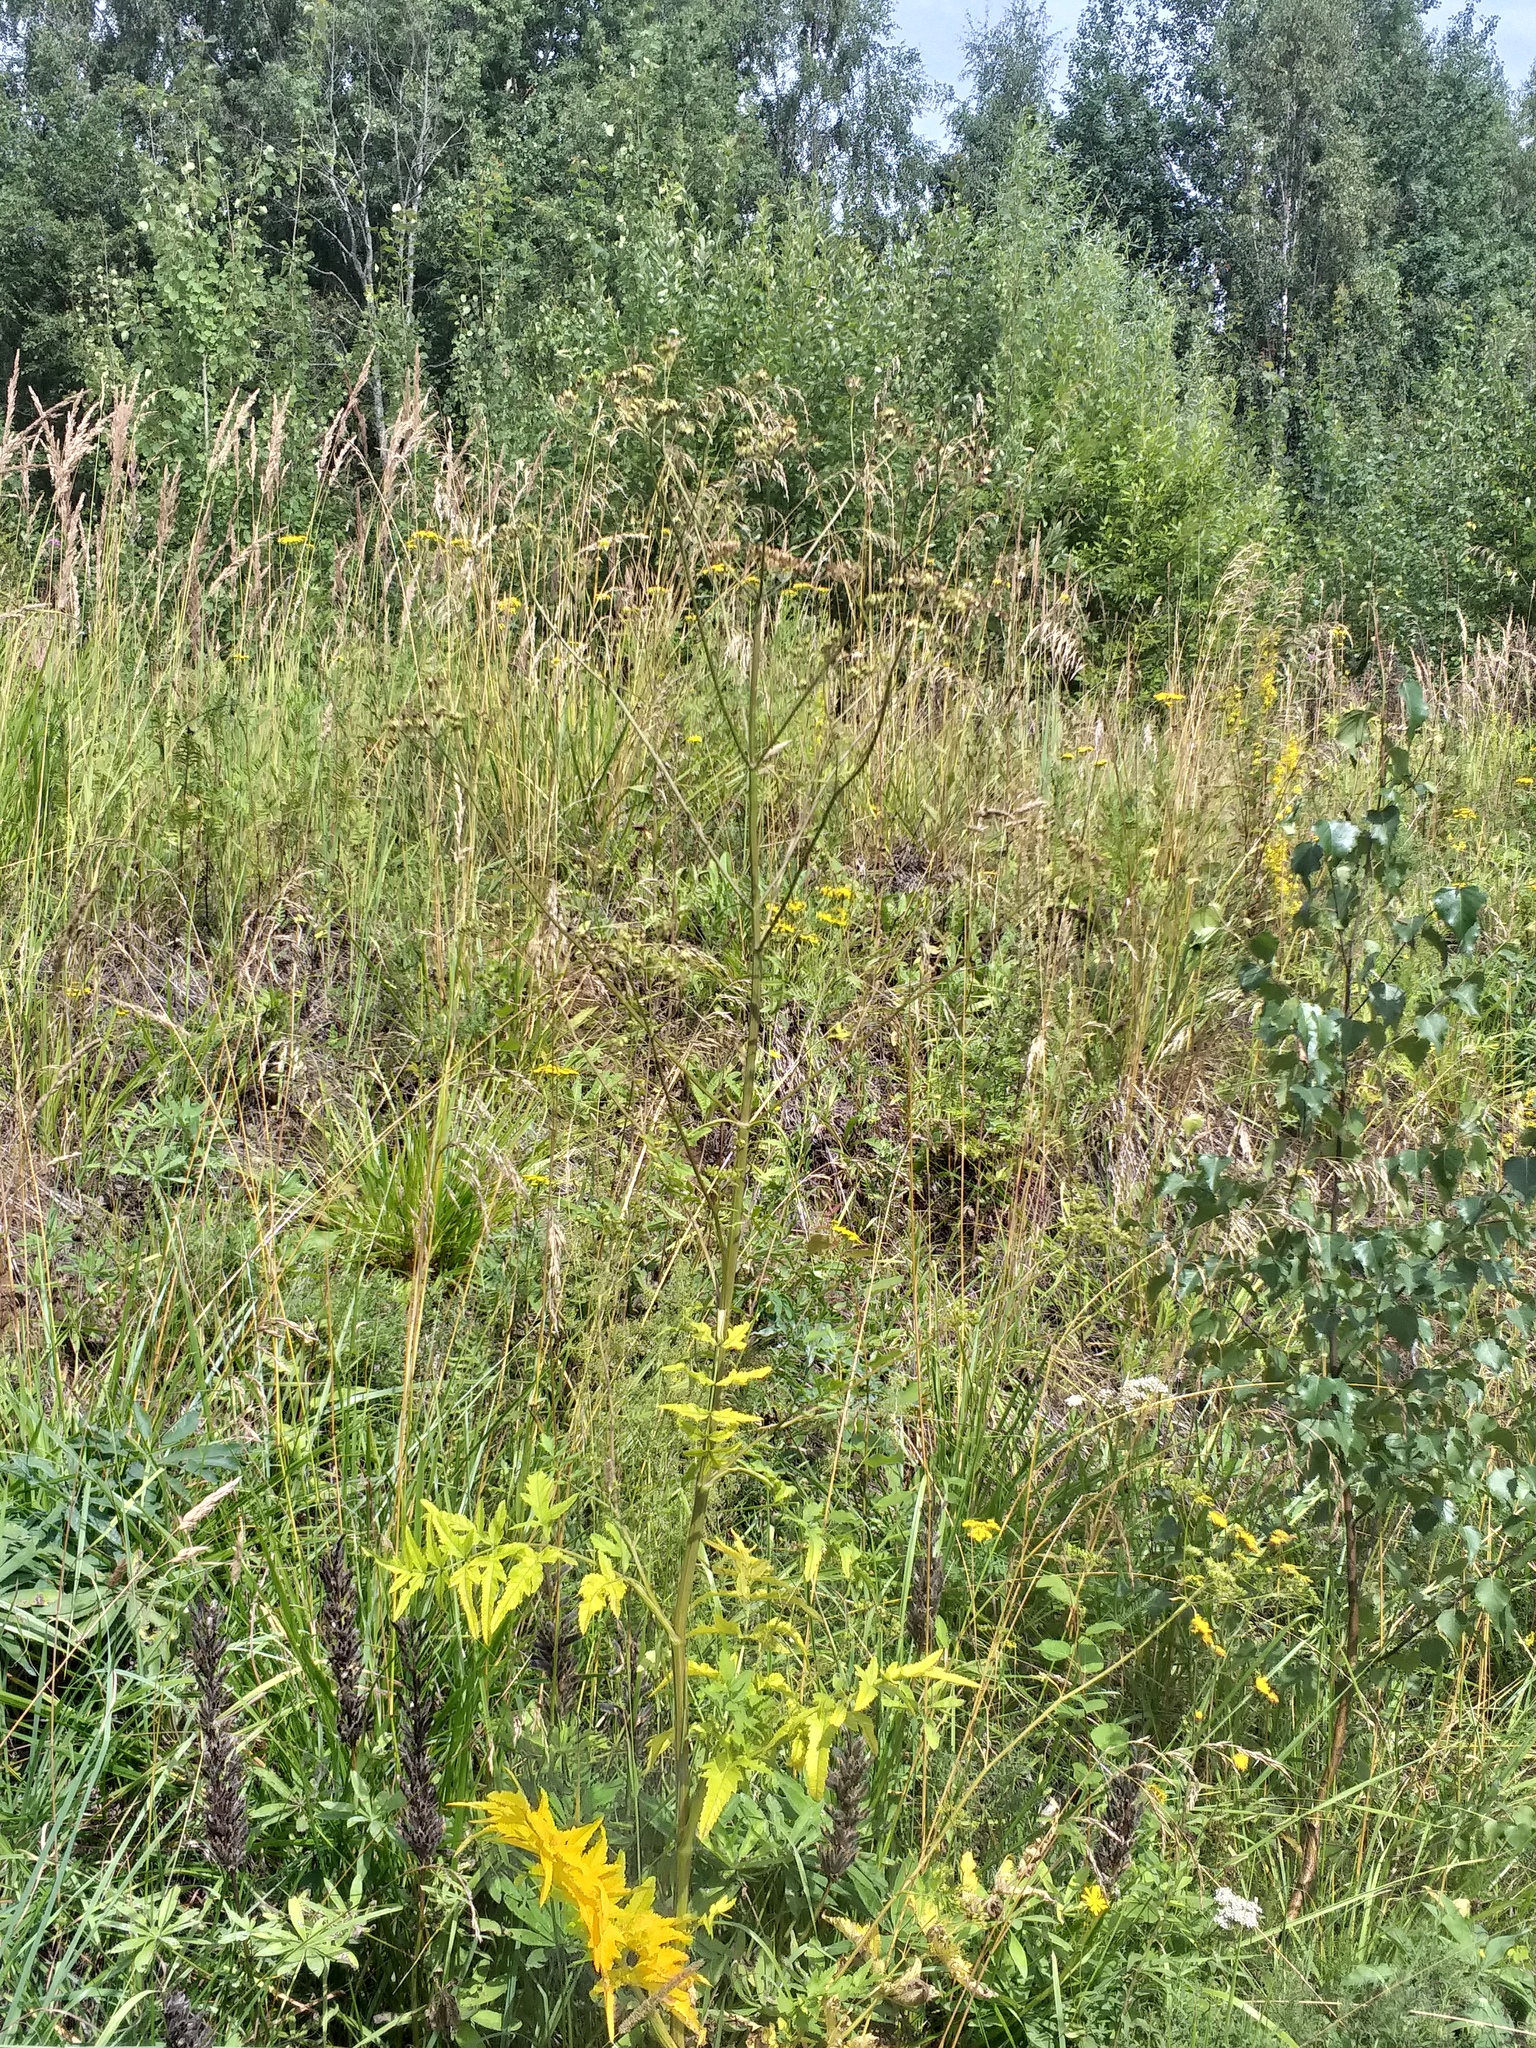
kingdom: Plantae
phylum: Tracheophyta
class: Magnoliopsida
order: Apiales
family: Apiaceae
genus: Pastinaca
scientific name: Pastinaca sativa
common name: Wild parsnip
